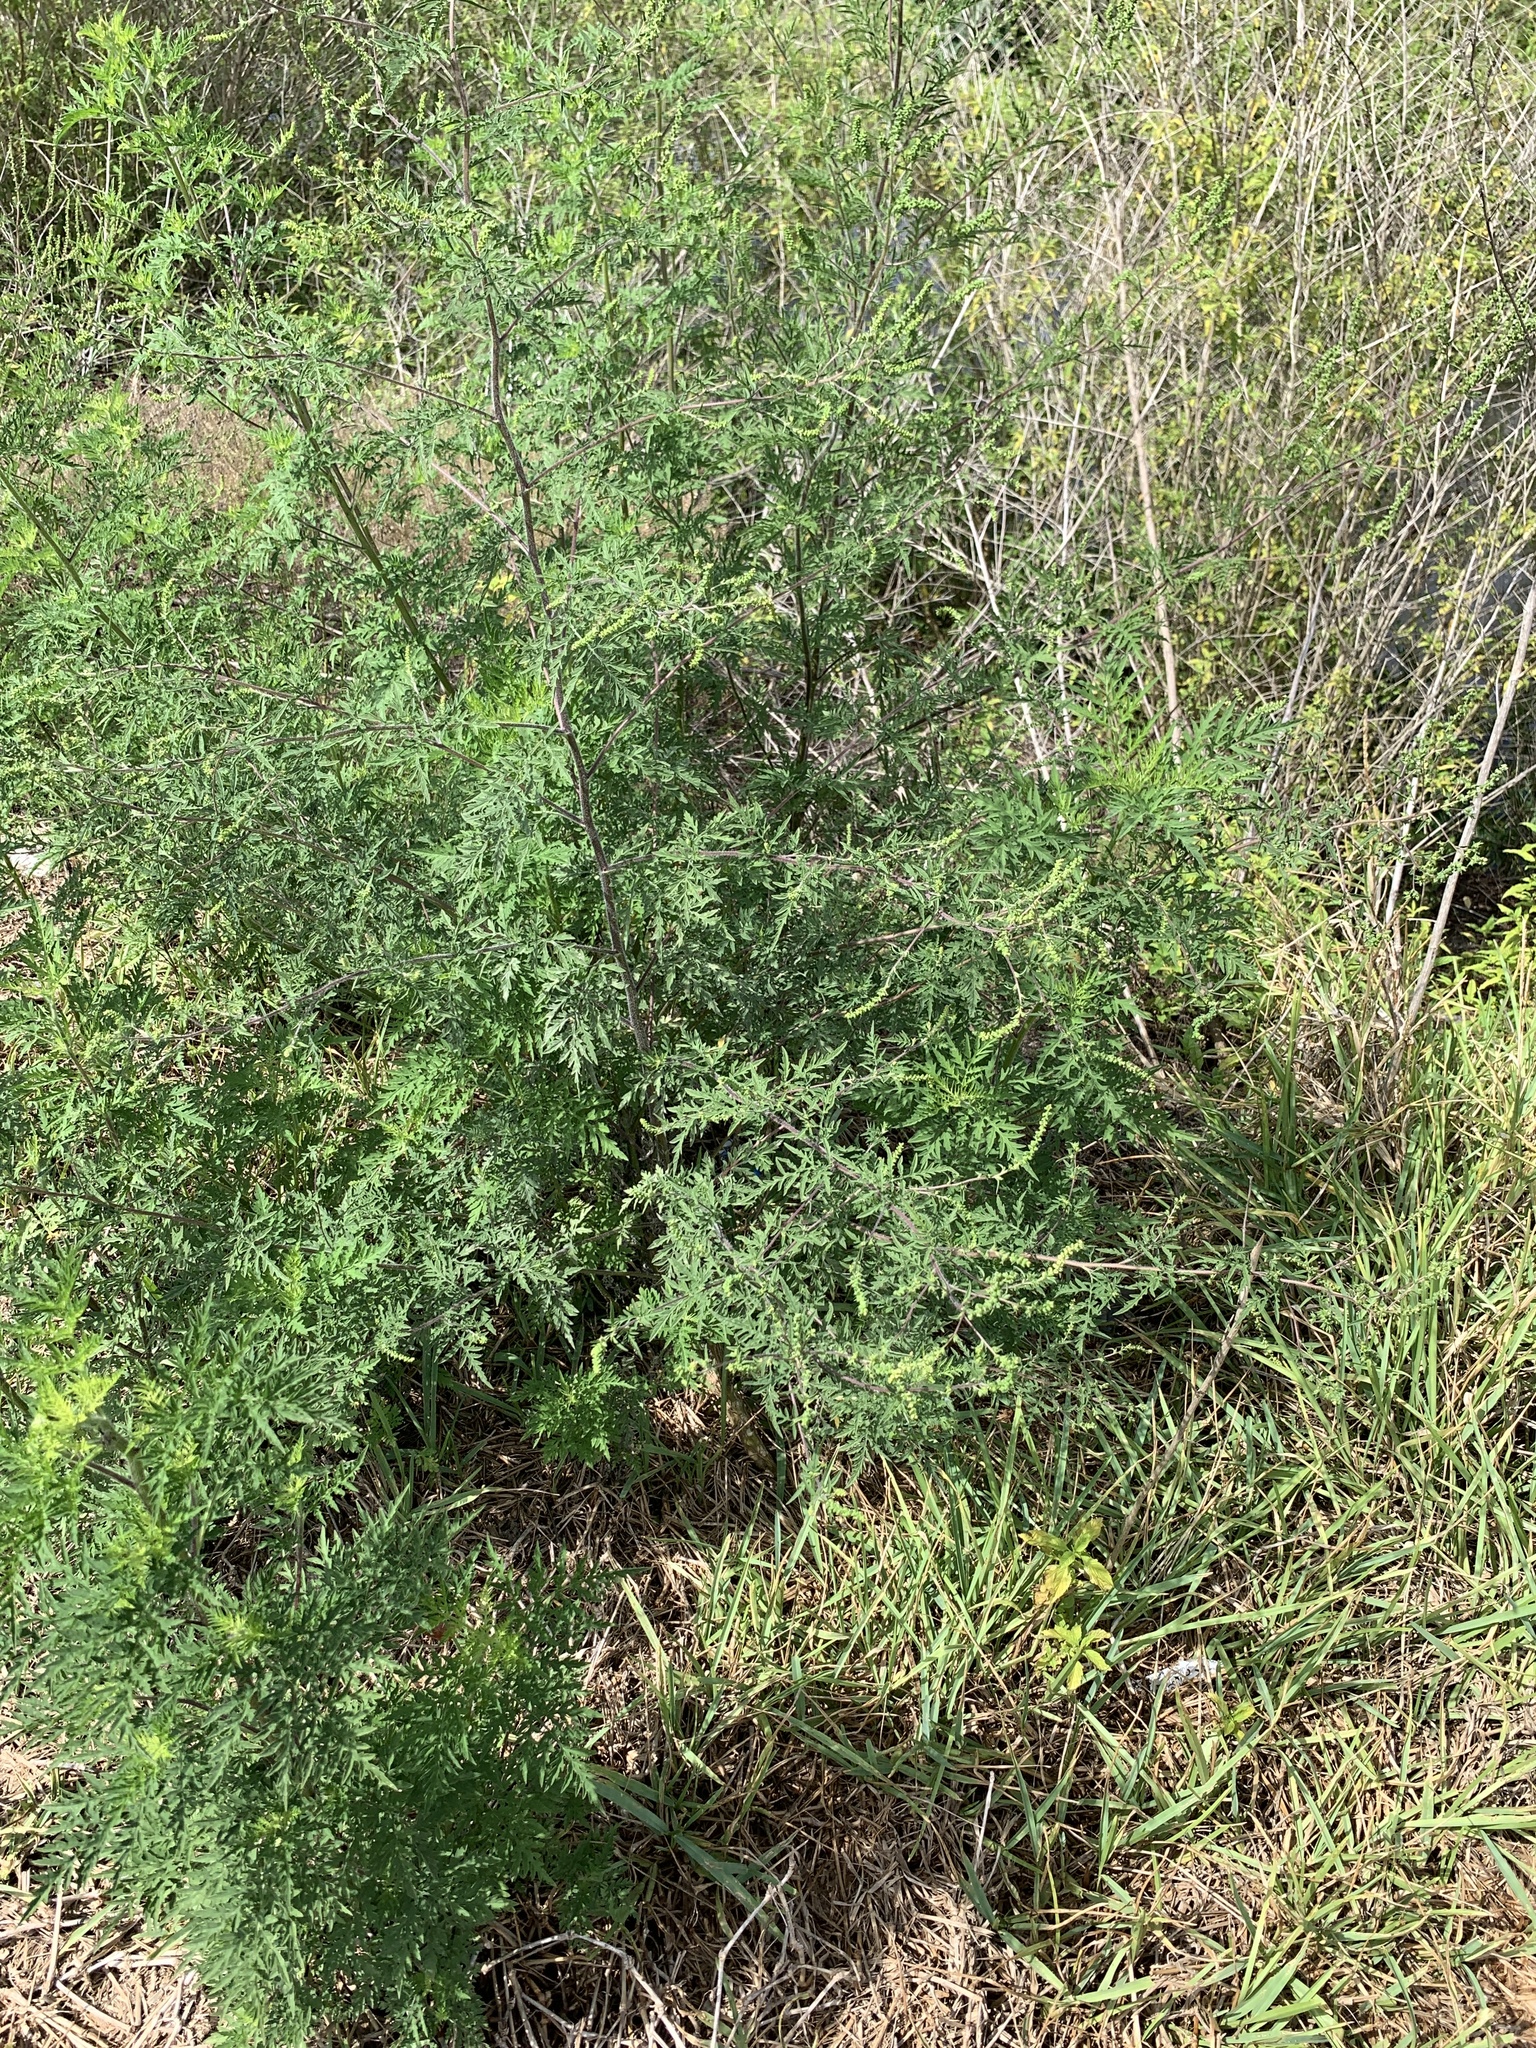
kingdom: Plantae
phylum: Tracheophyta
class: Magnoliopsida
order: Asterales
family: Asteraceae
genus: Ambrosia
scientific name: Ambrosia artemisiifolia
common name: Annual ragweed
